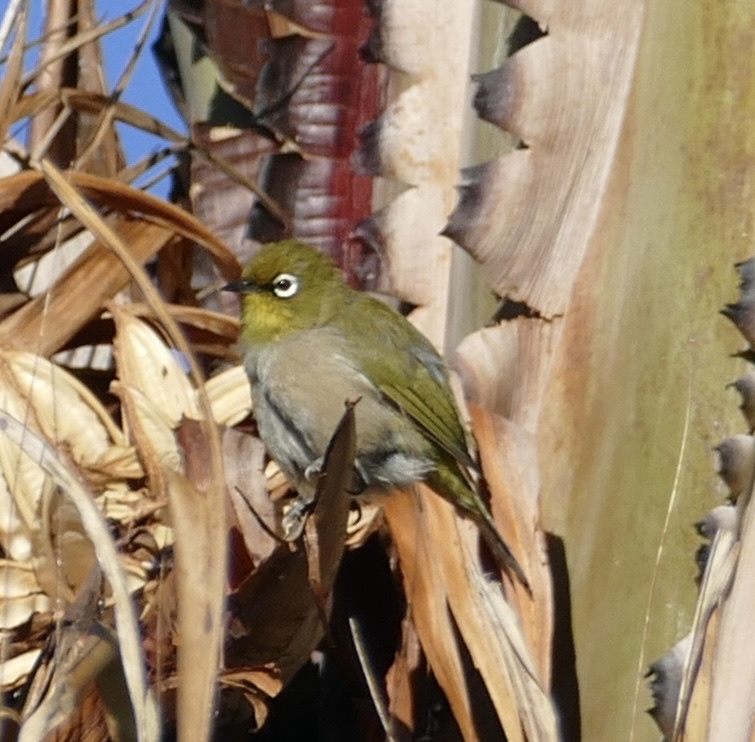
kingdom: Animalia
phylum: Chordata
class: Aves
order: Passeriformes
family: Zosteropidae
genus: Zosterops
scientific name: Zosterops virens
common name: Cape white-eye
